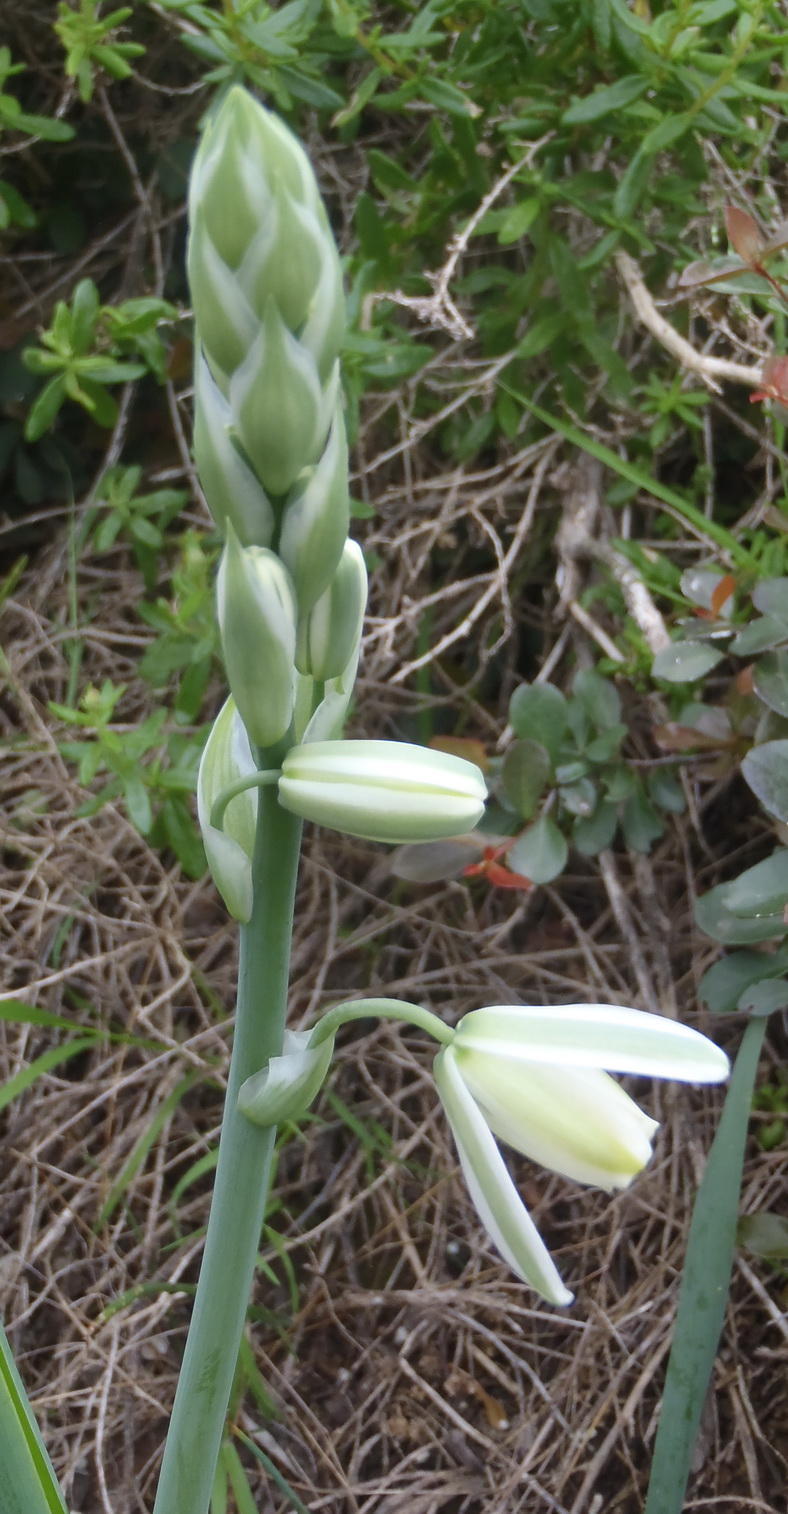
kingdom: Plantae
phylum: Tracheophyta
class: Liliopsida
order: Asparagales
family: Asparagaceae
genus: Albuca
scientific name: Albuca canadensis
